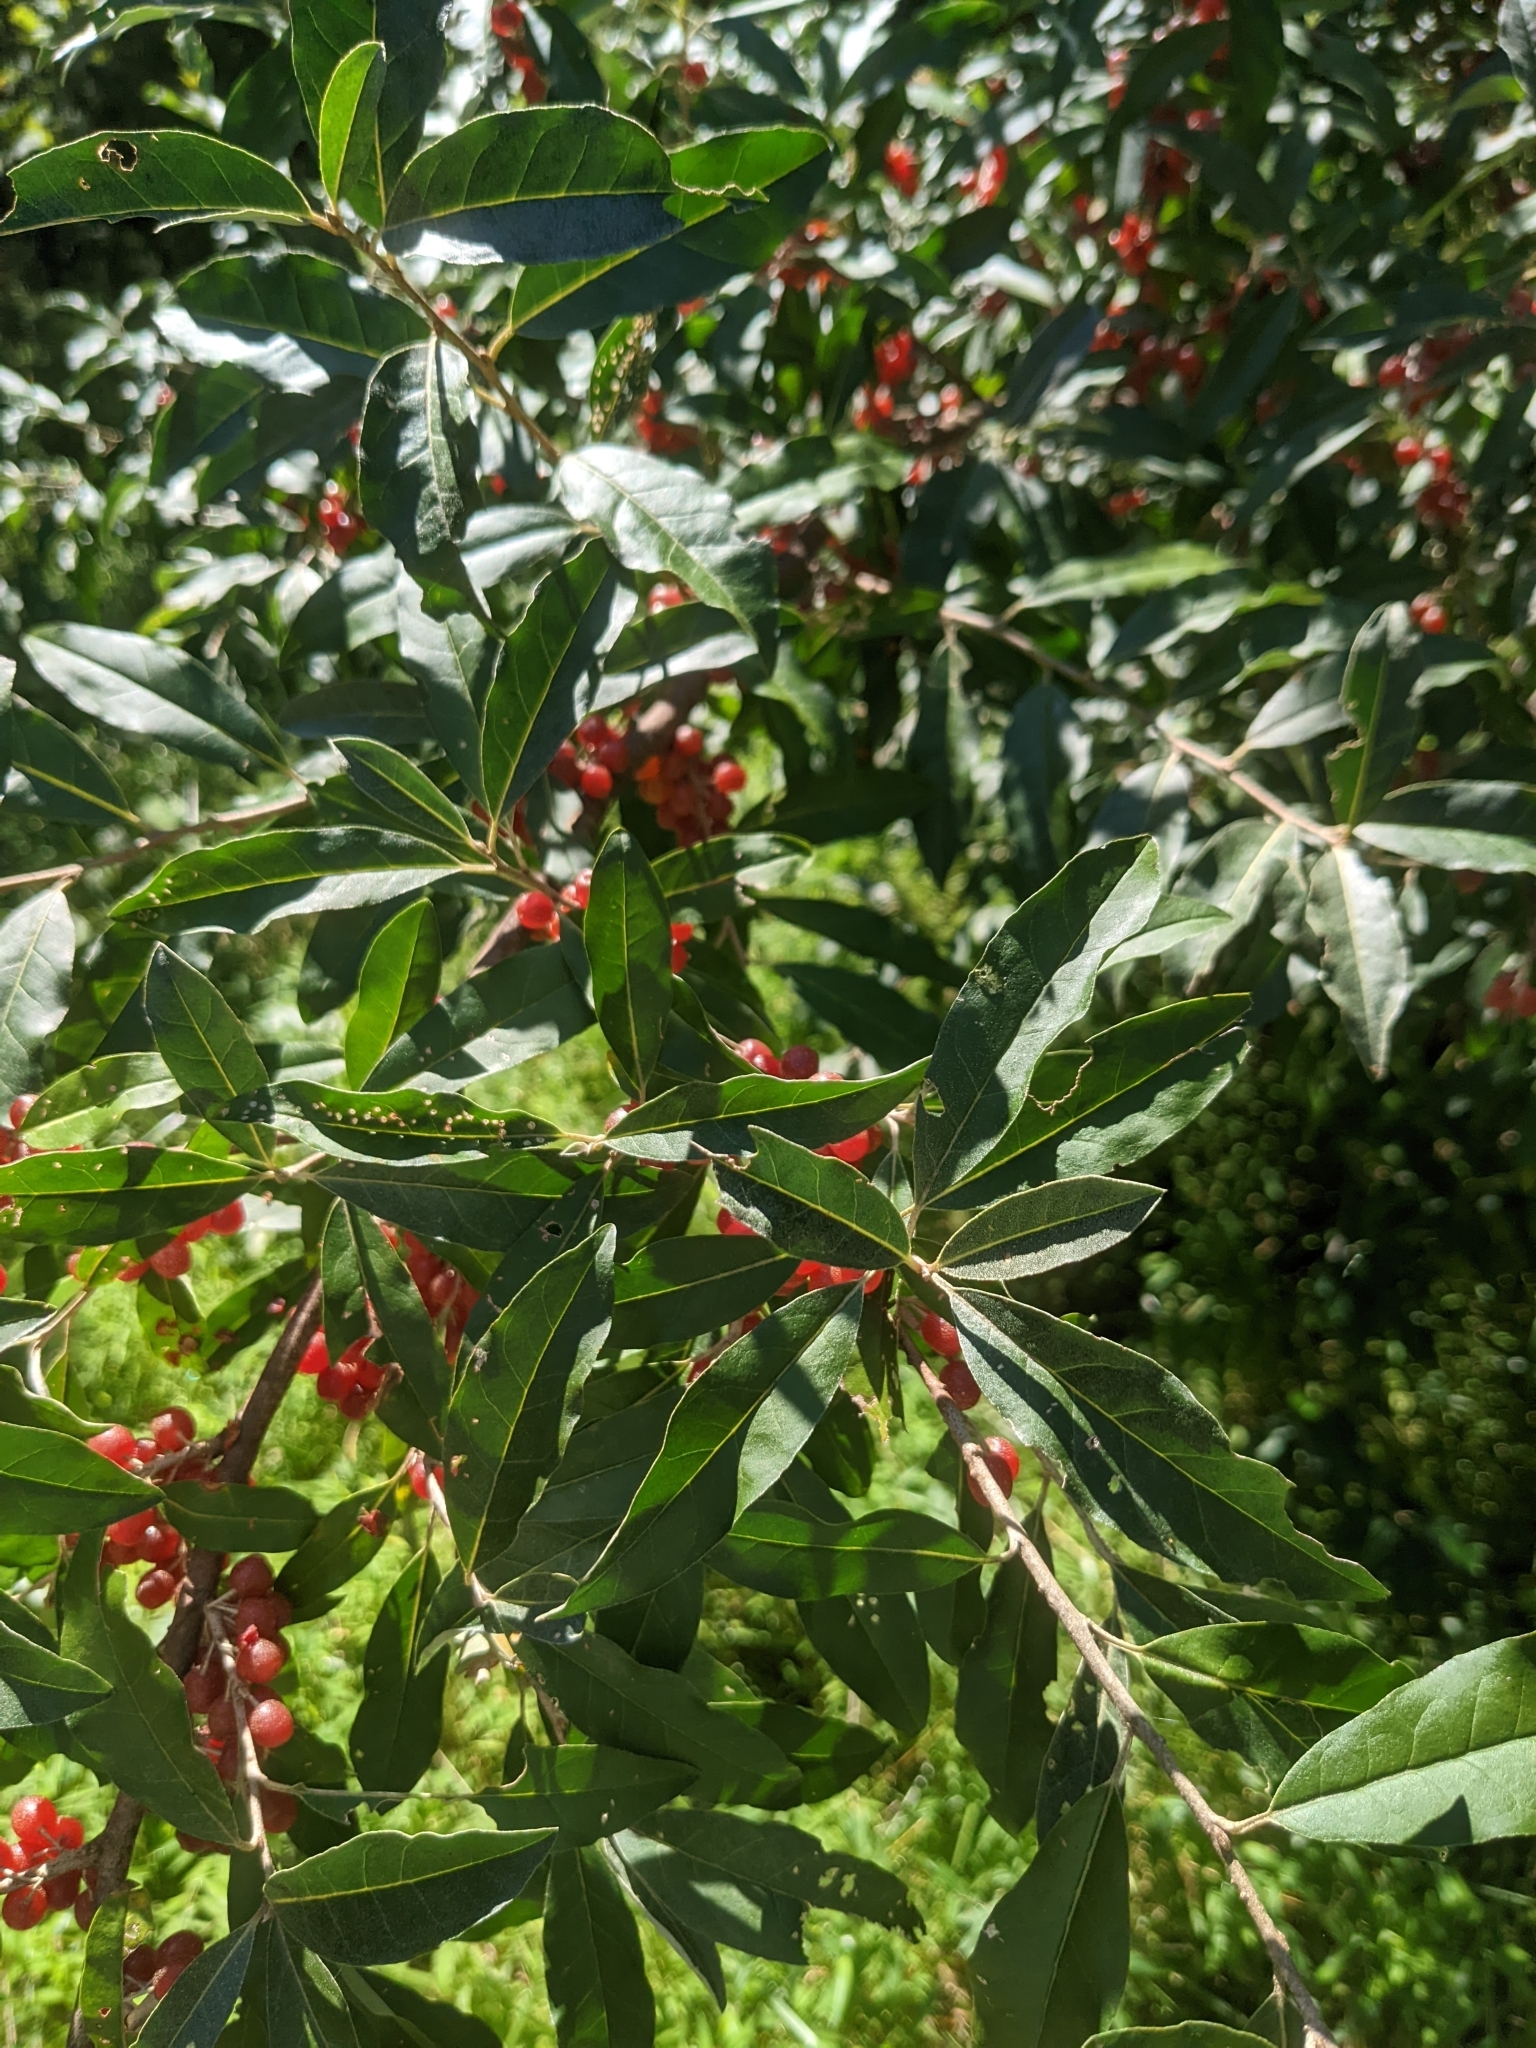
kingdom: Plantae
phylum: Tracheophyta
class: Magnoliopsida
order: Rosales
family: Elaeagnaceae
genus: Elaeagnus
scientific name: Elaeagnus umbellata
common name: Autumn olive
